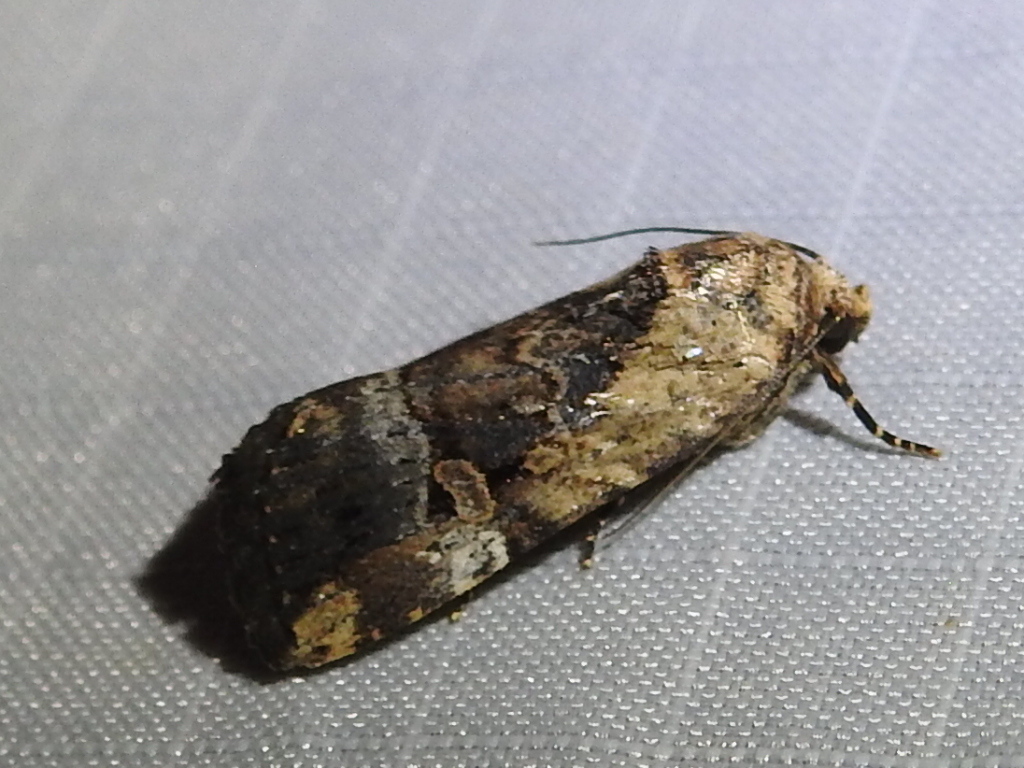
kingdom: Animalia
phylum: Arthropoda
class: Insecta
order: Lepidoptera
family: Noctuidae
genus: Elaphria
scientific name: Elaphria chalcedonia
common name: Chalcedony midget
